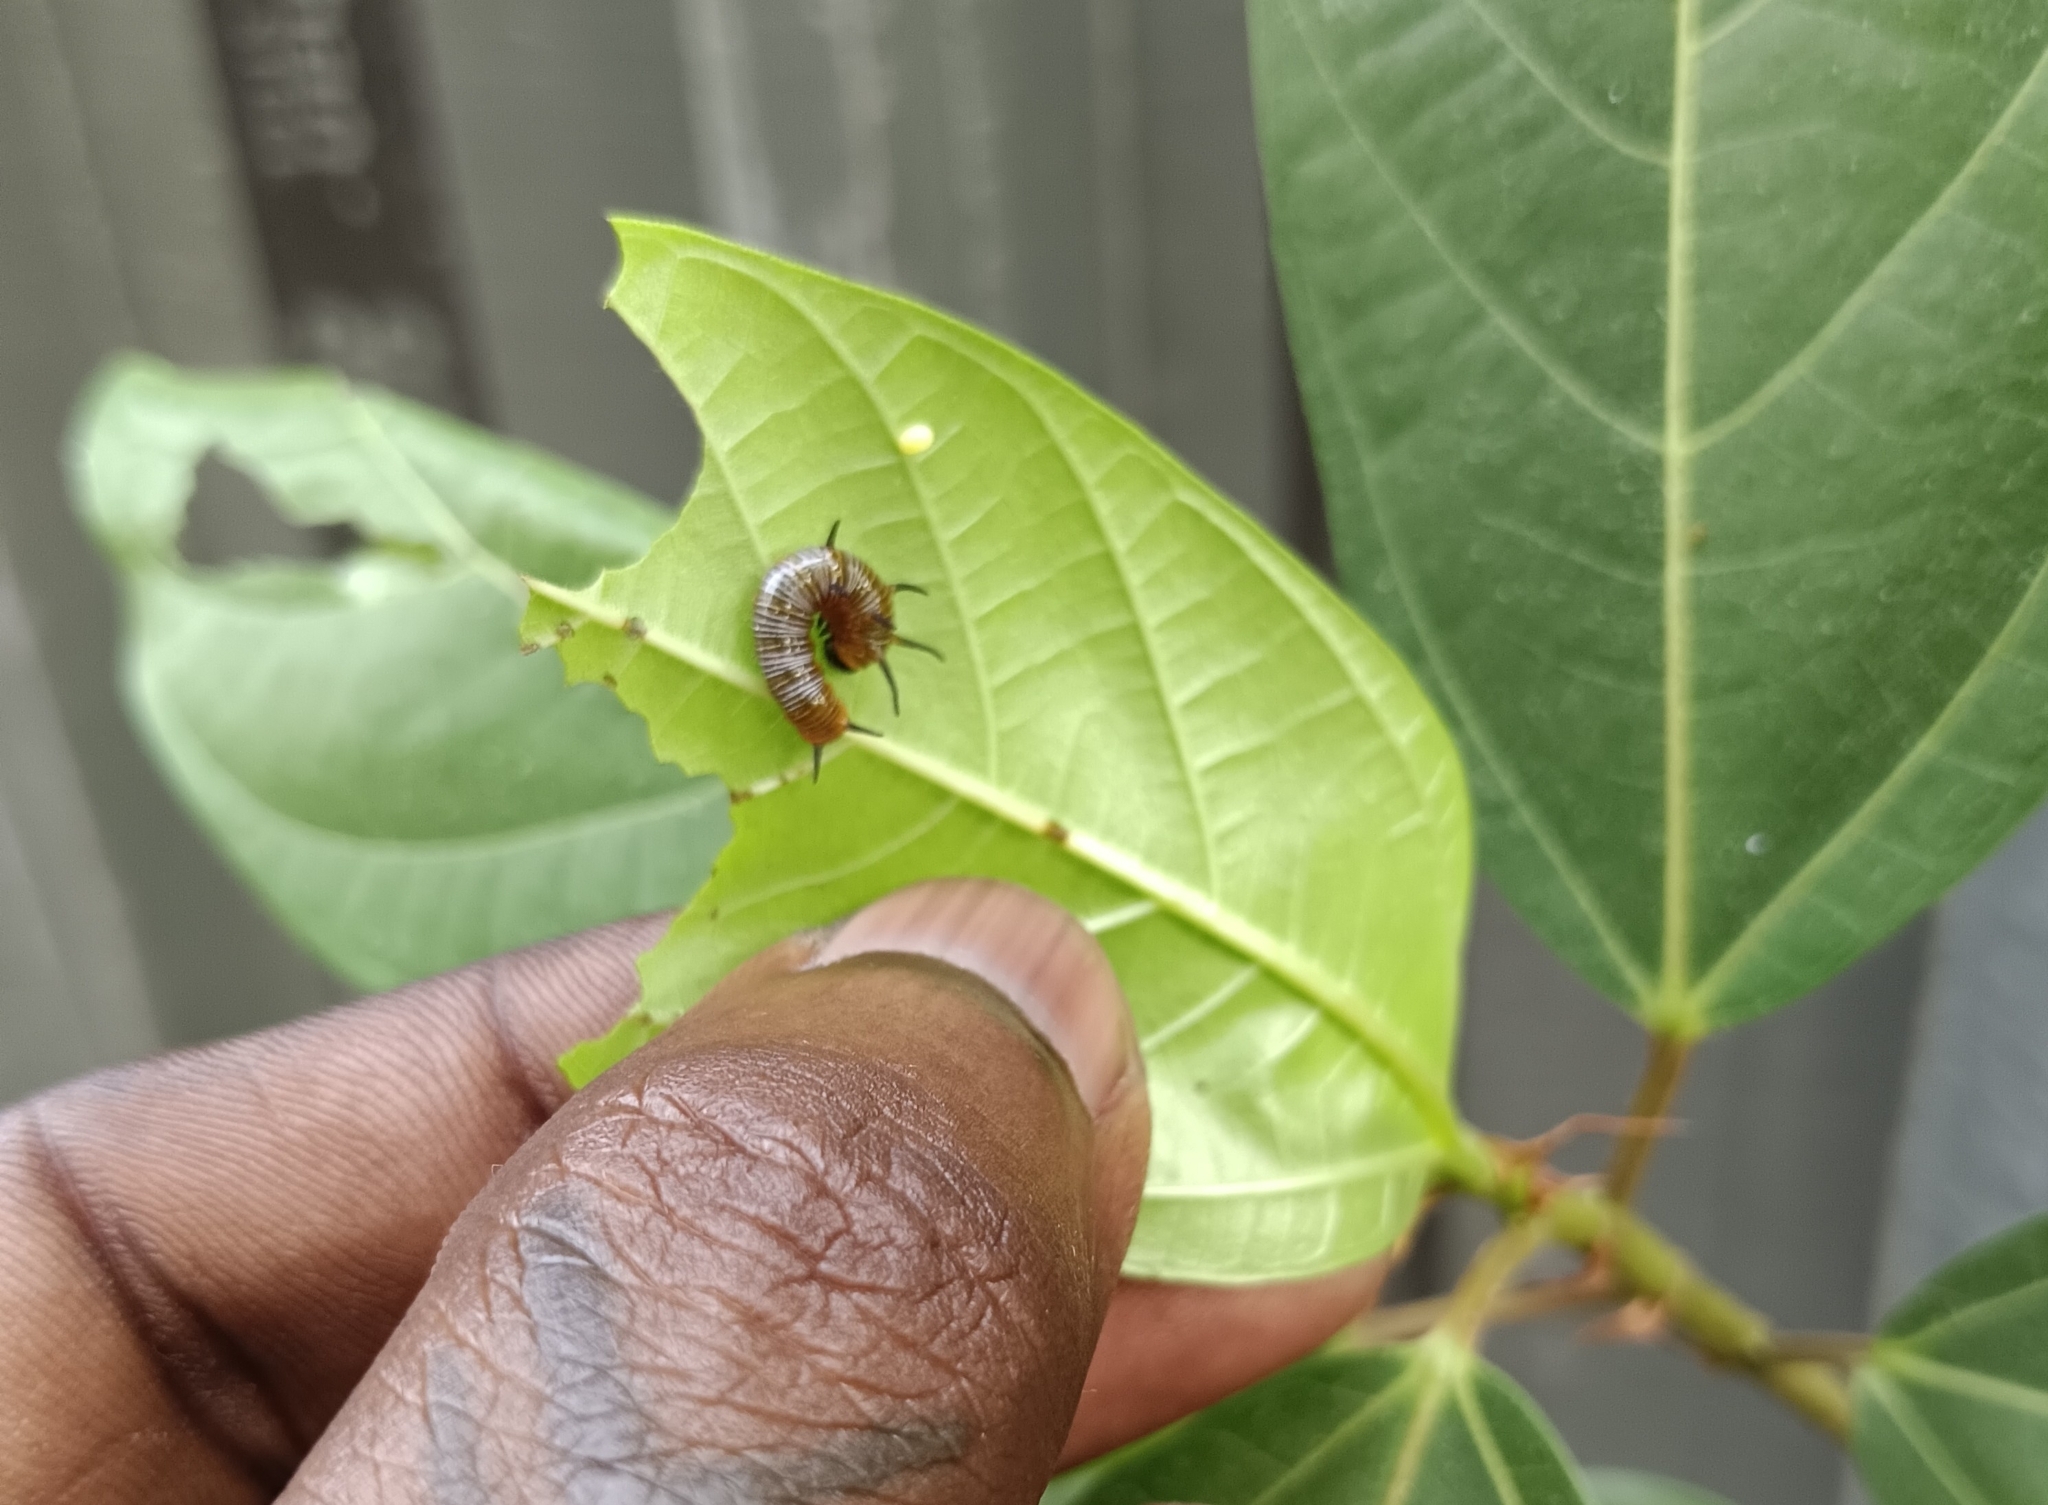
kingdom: Animalia
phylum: Arthropoda
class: Insecta
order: Lepidoptera
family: Nymphalidae
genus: Euploea
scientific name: Euploea core
